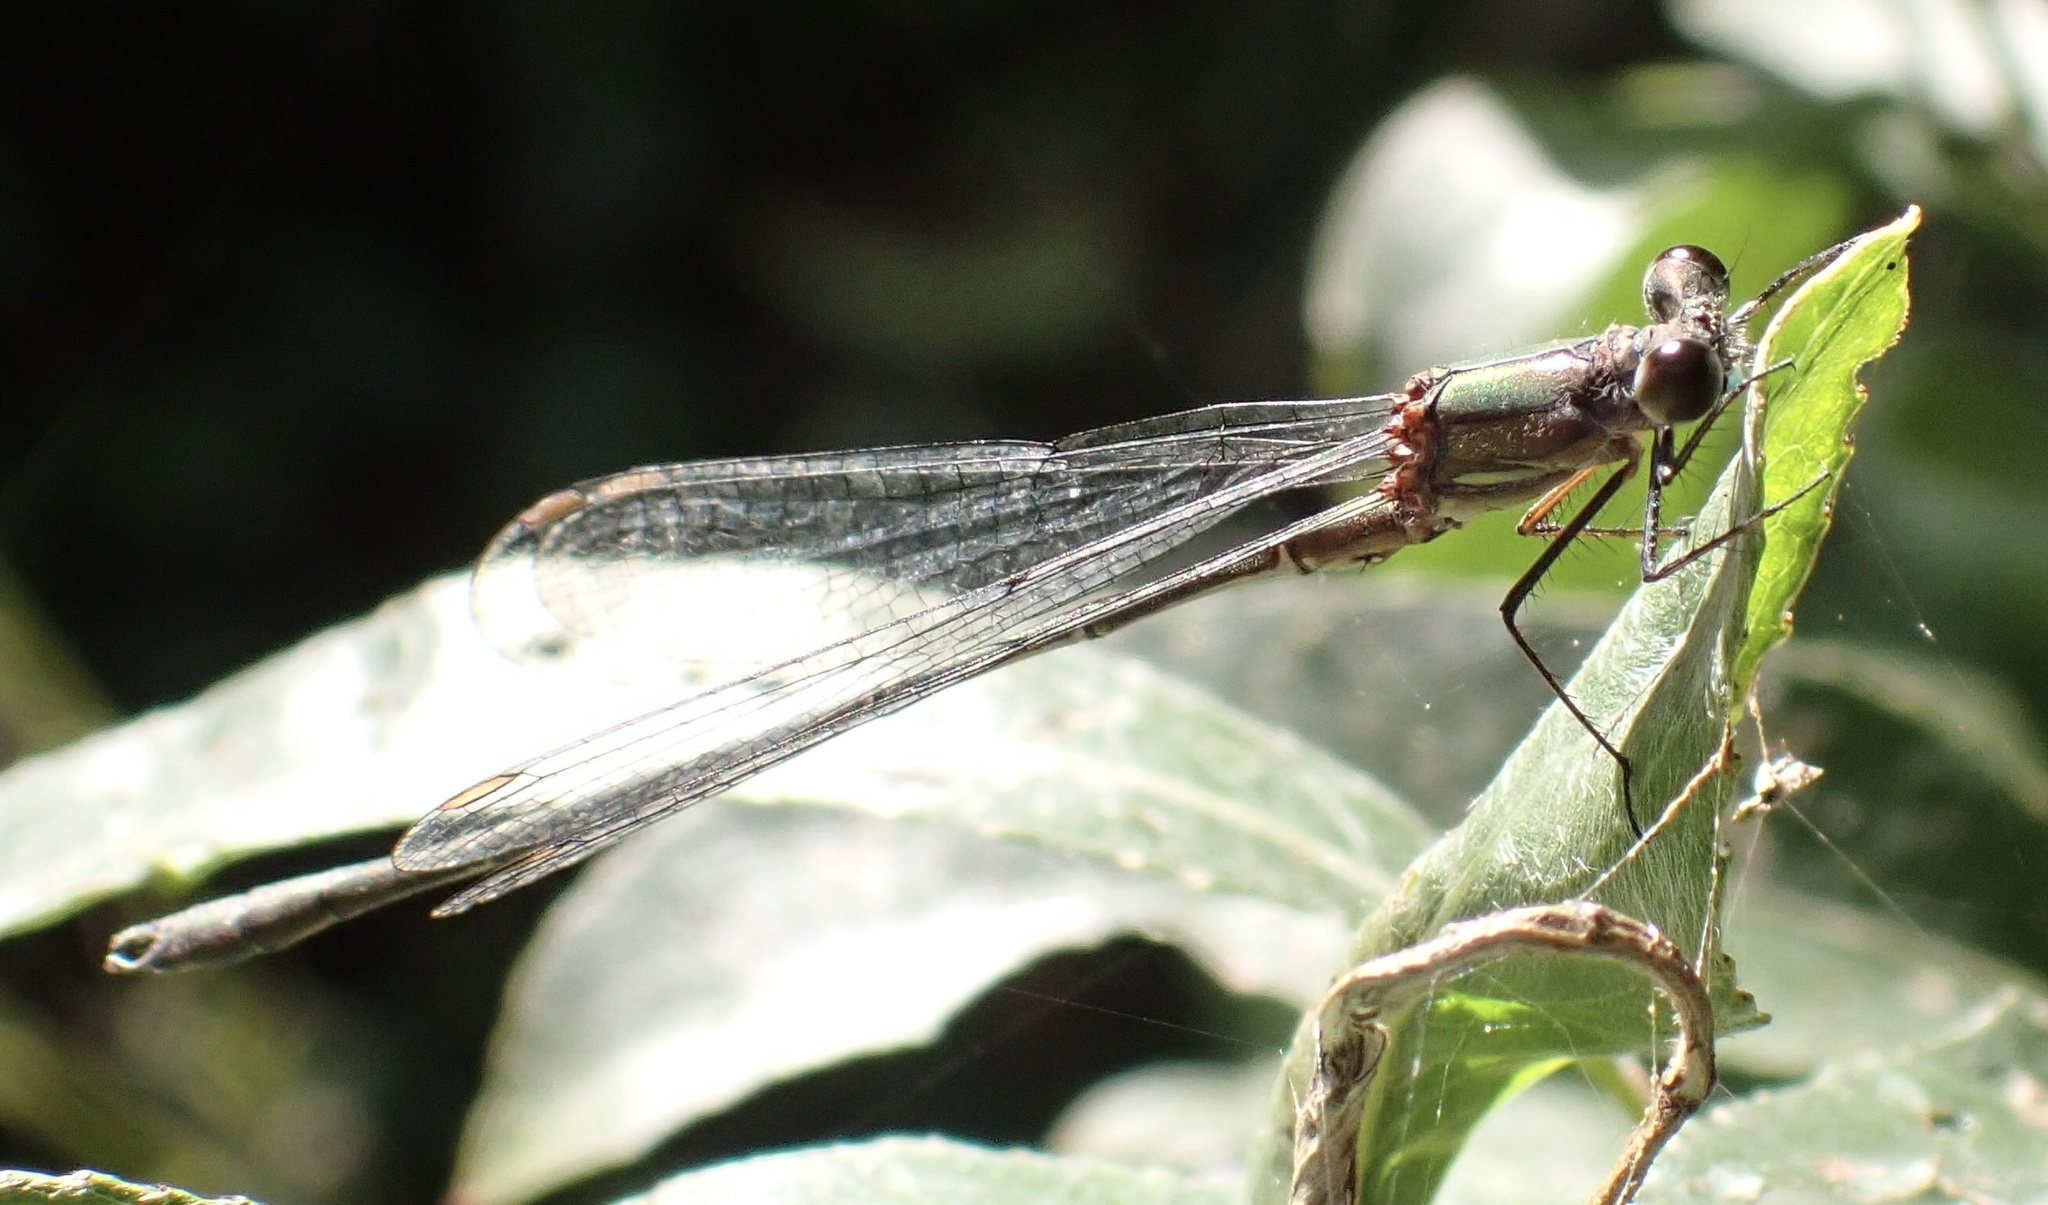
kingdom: Animalia
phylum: Arthropoda
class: Insecta
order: Odonata
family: Lestidae
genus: Chalcolestes
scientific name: Chalcolestes viridis
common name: Green emerald damselfly
